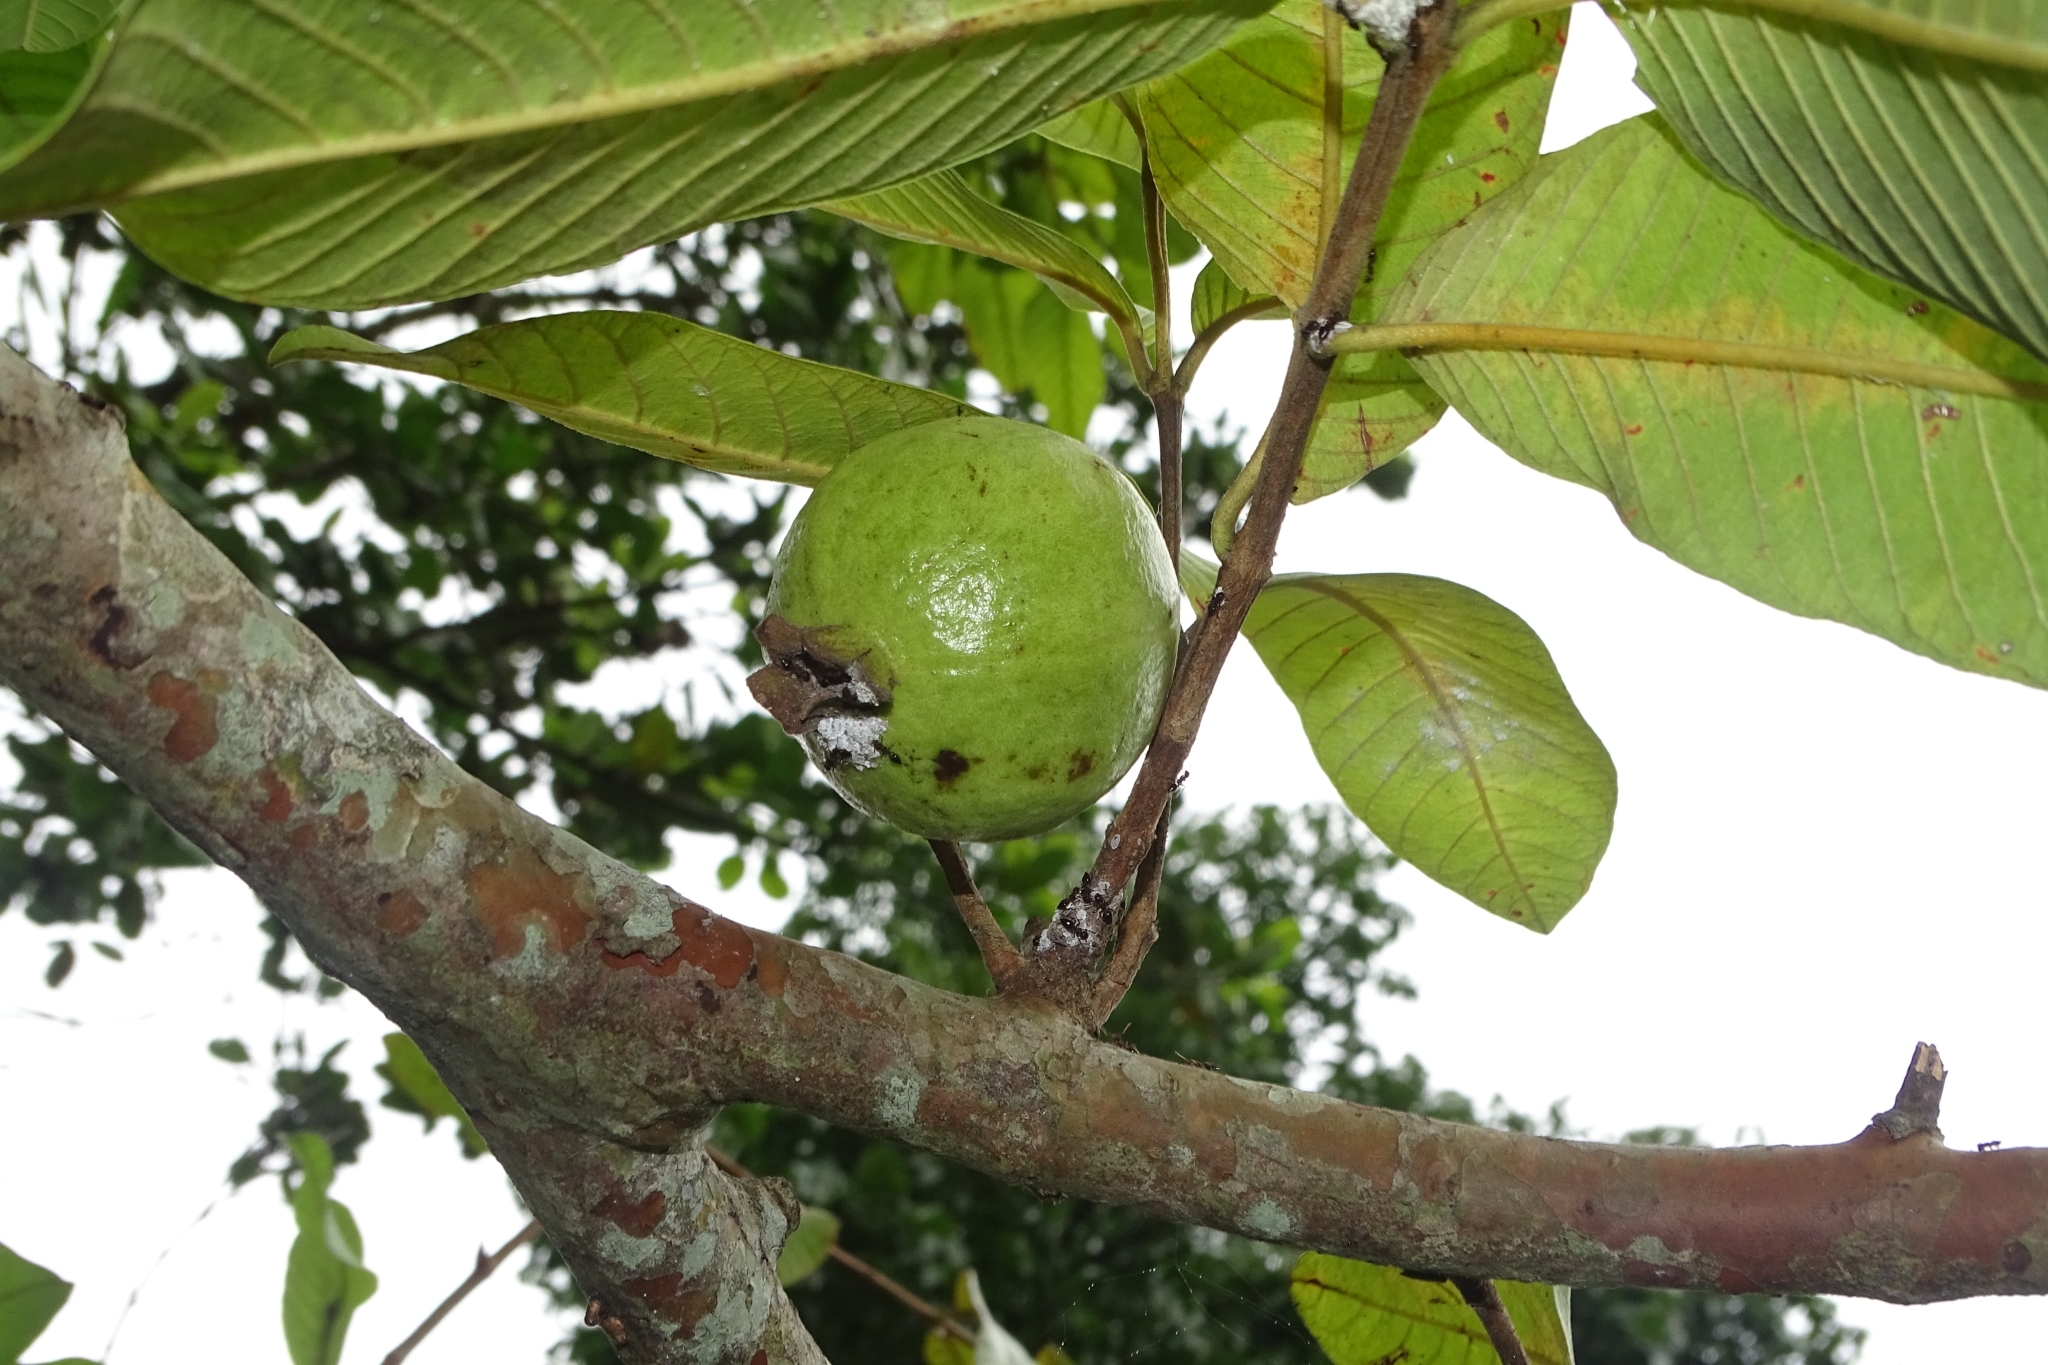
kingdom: Plantae
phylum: Tracheophyta
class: Magnoliopsida
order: Myrtales
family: Myrtaceae
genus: Psidium
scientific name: Psidium guajava
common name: Guava
